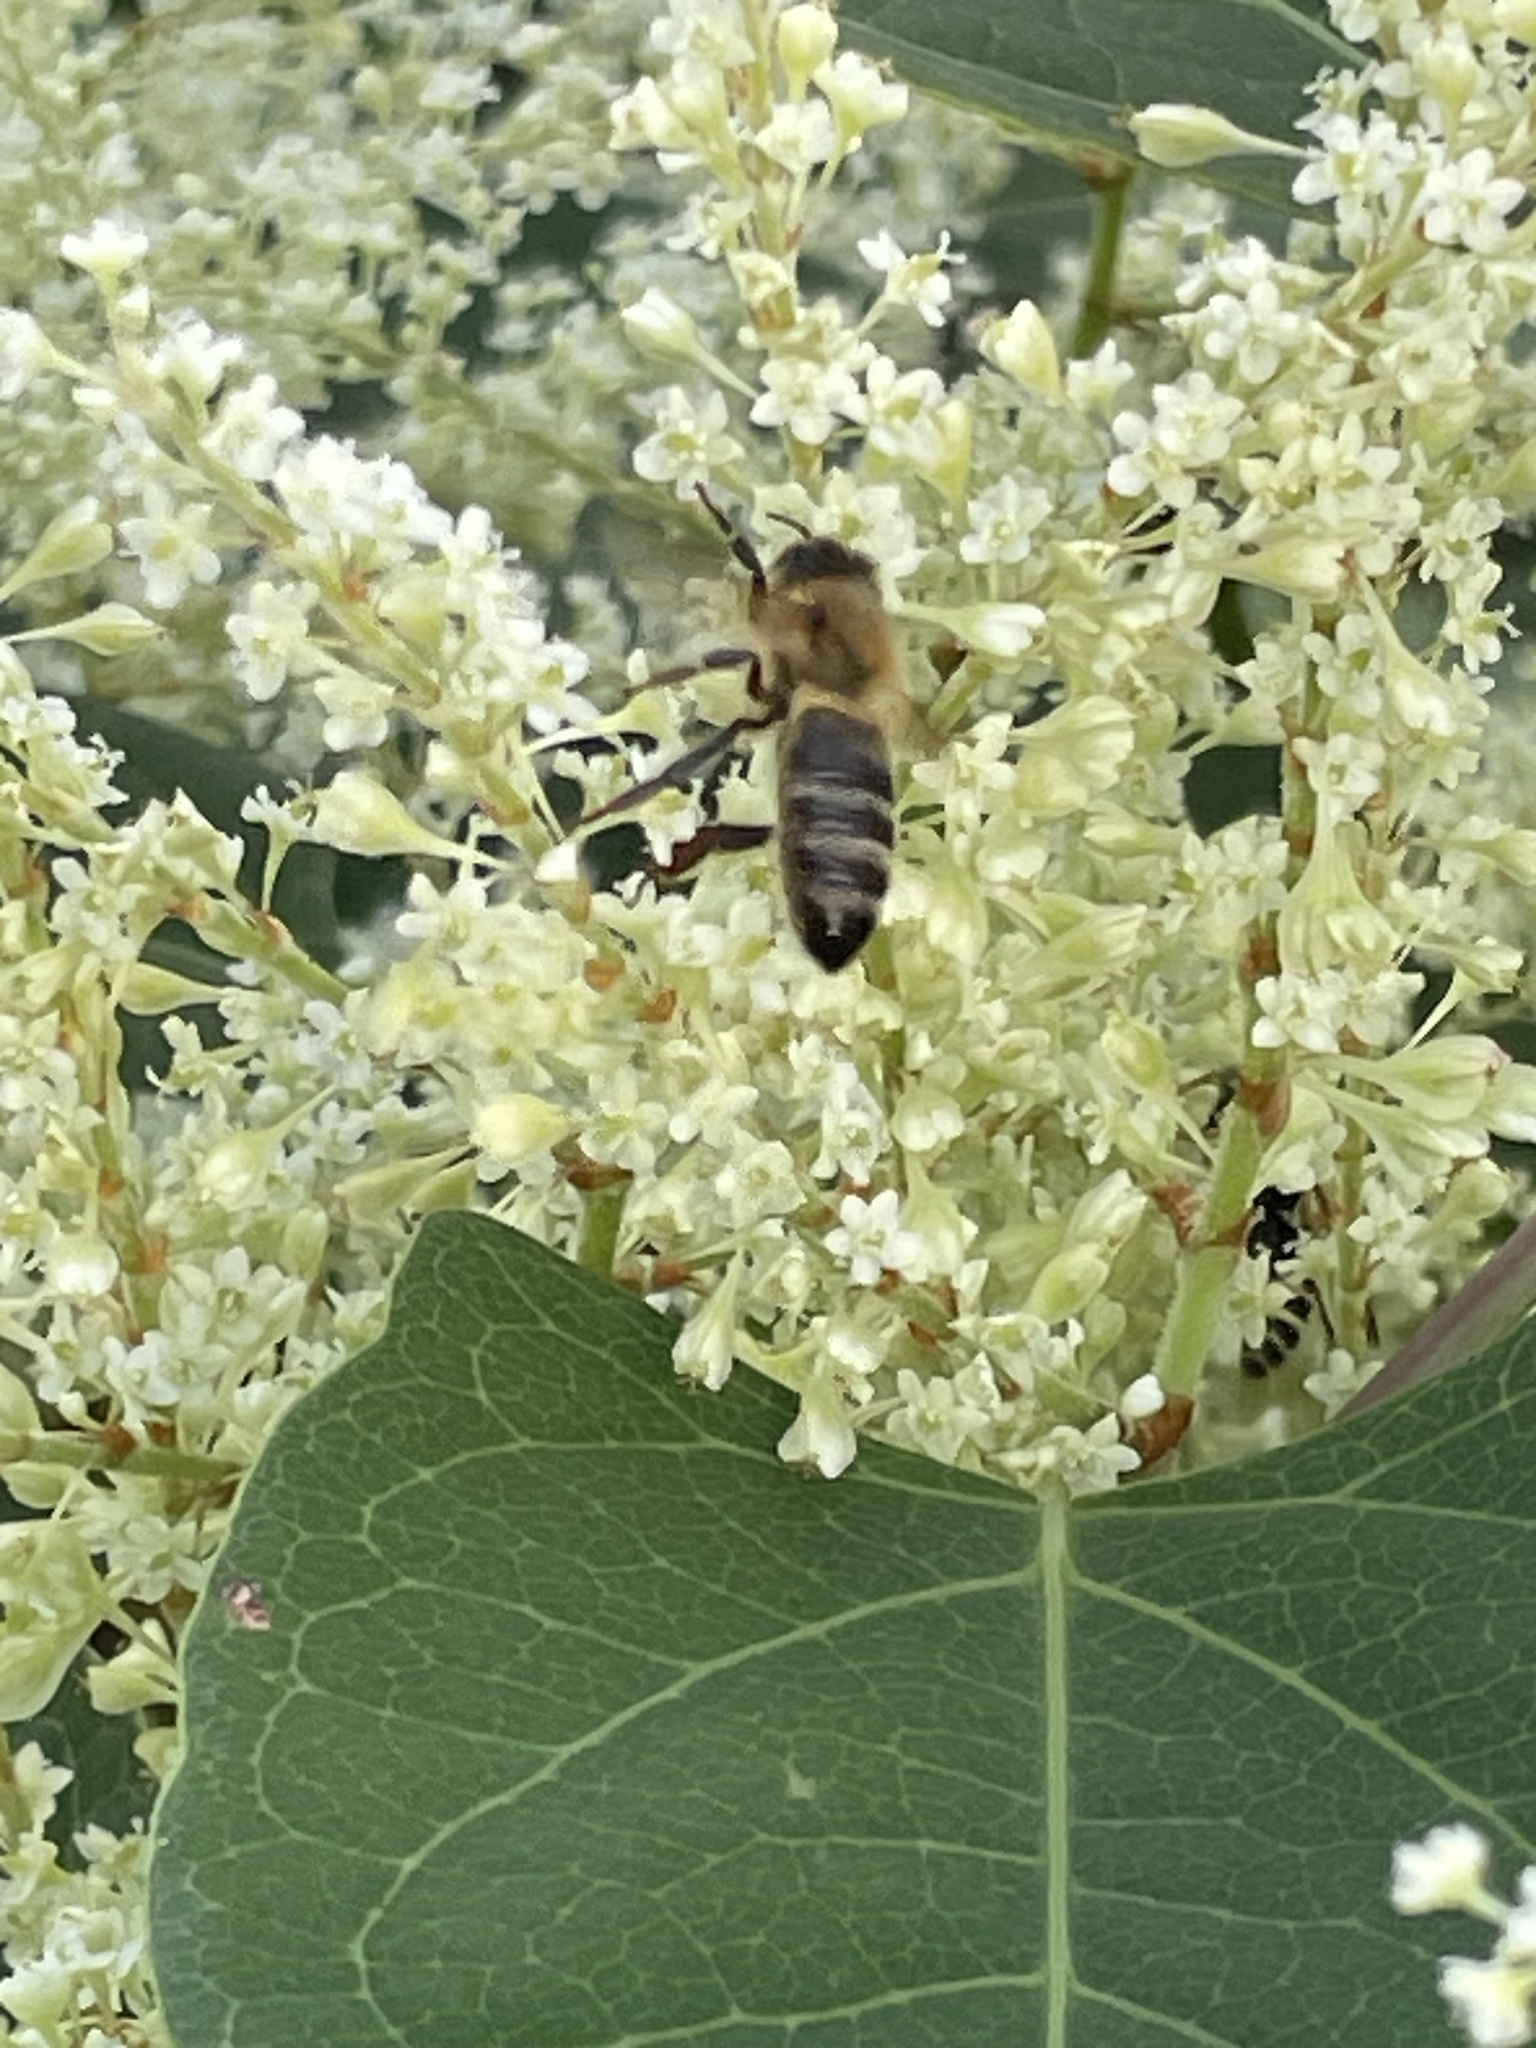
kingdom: Animalia
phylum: Arthropoda
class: Insecta
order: Hymenoptera
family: Apidae
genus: Apis
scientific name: Apis mellifera
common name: Honey bee
